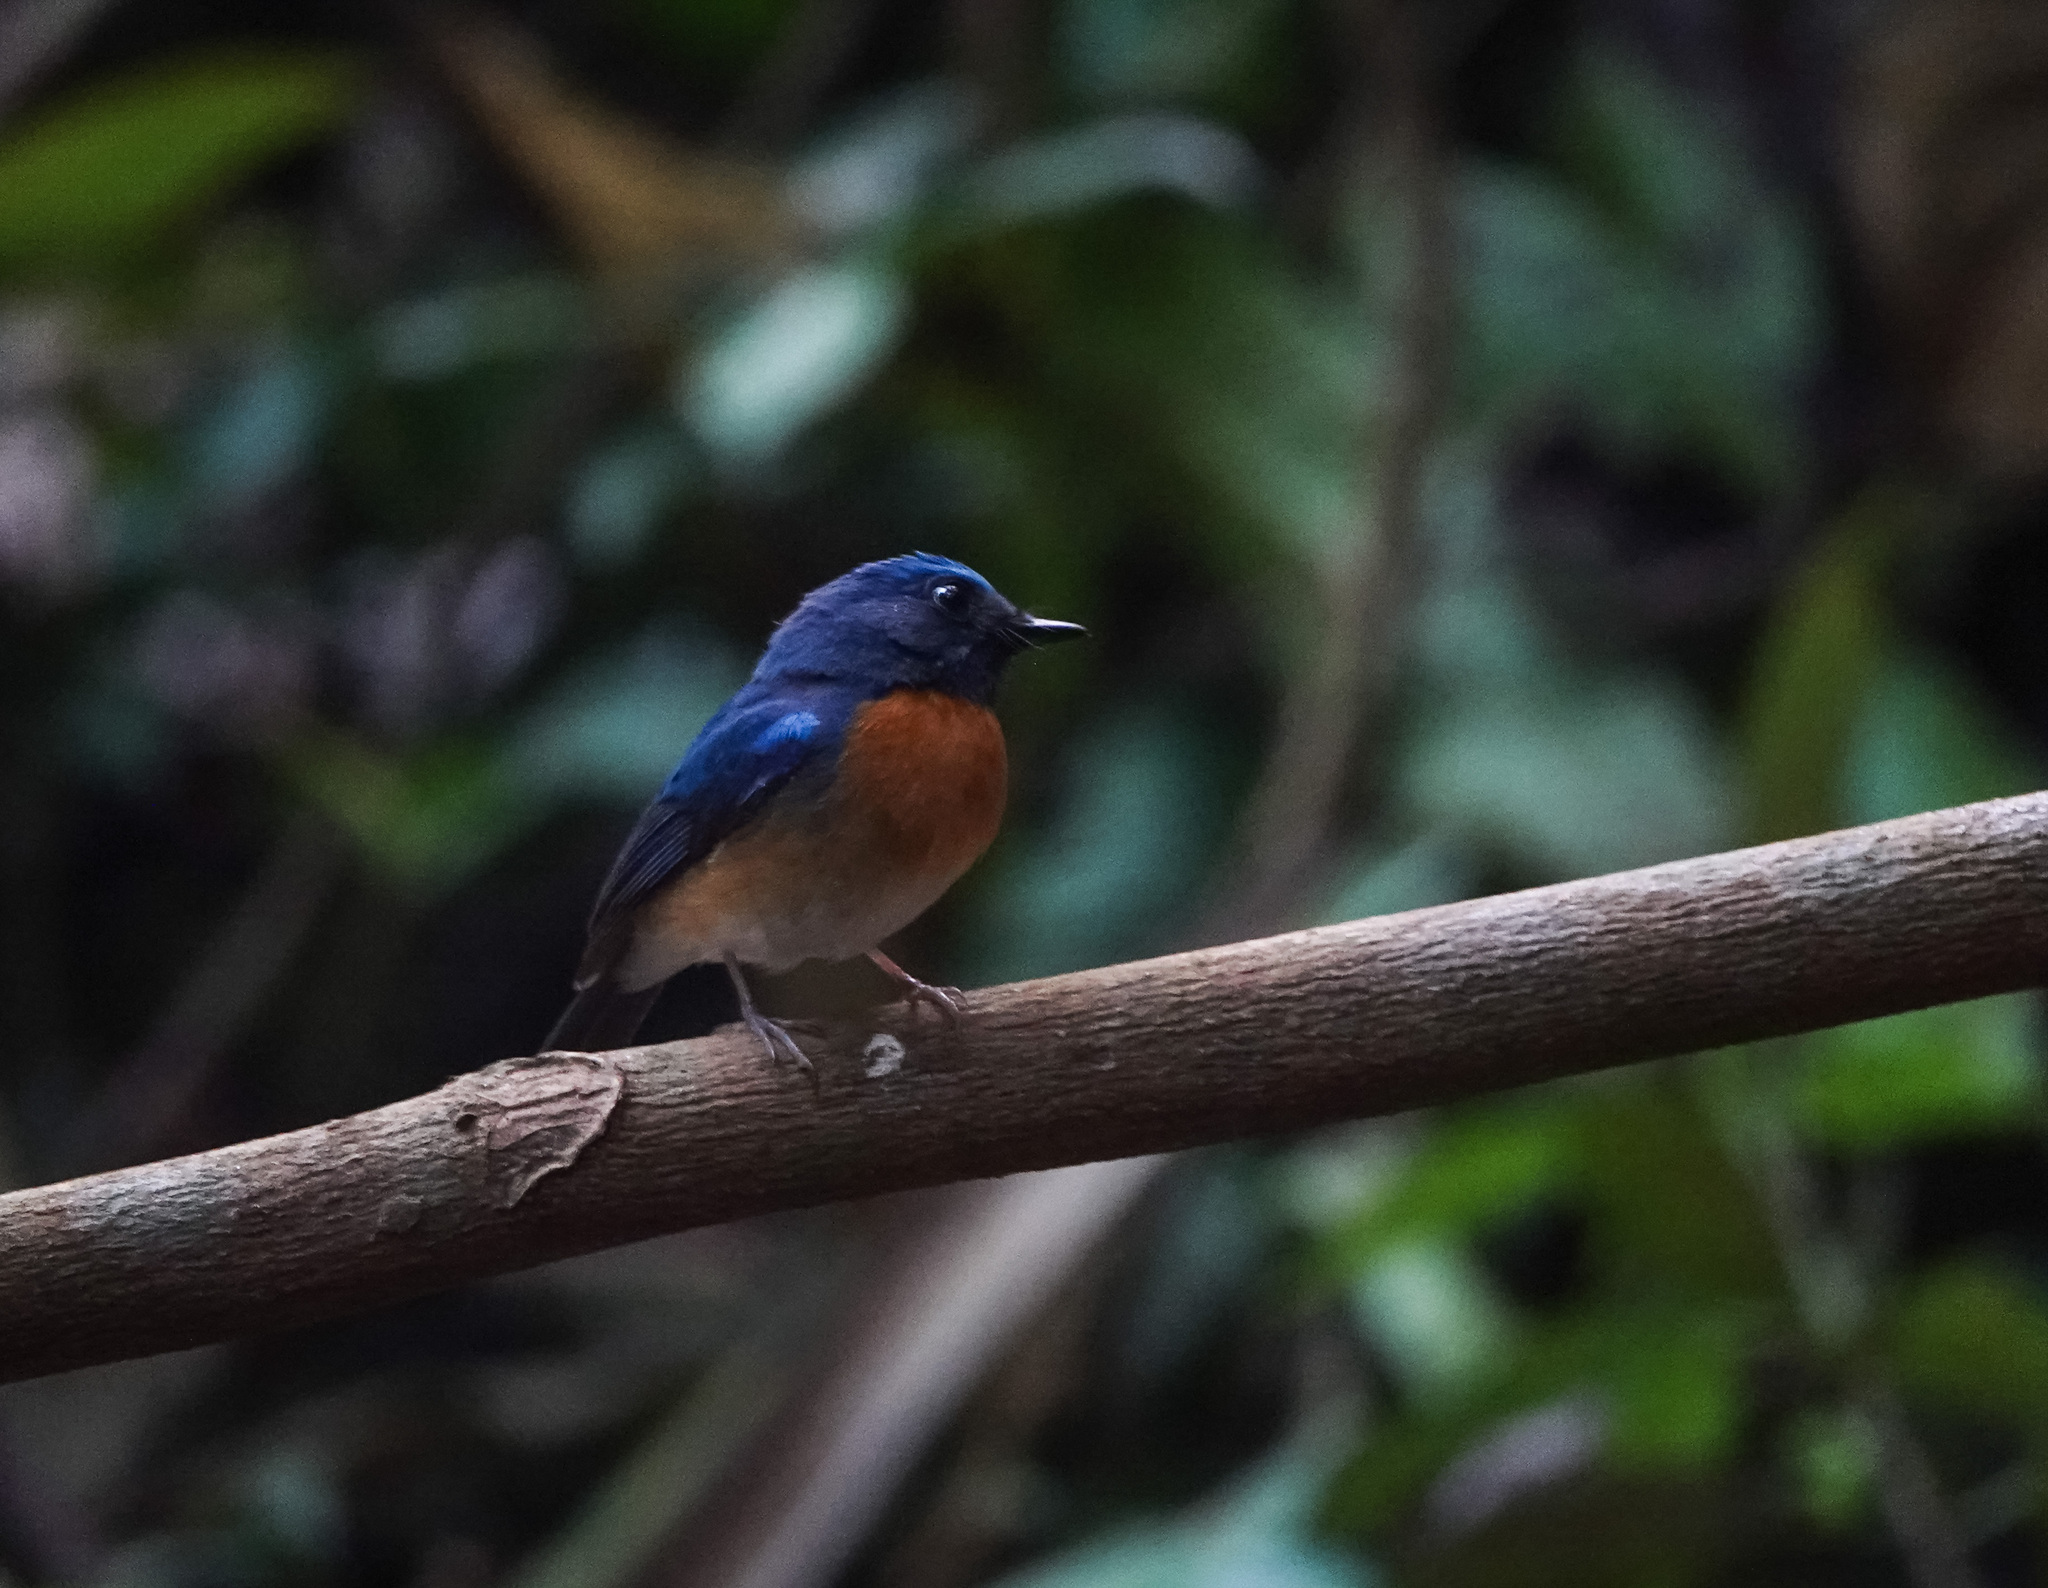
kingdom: Animalia
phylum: Chordata
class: Aves
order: Passeriformes
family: Muscicapidae
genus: Cyornis
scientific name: Cyornis rubeculoides
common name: Blue-throated blue flycatcher
